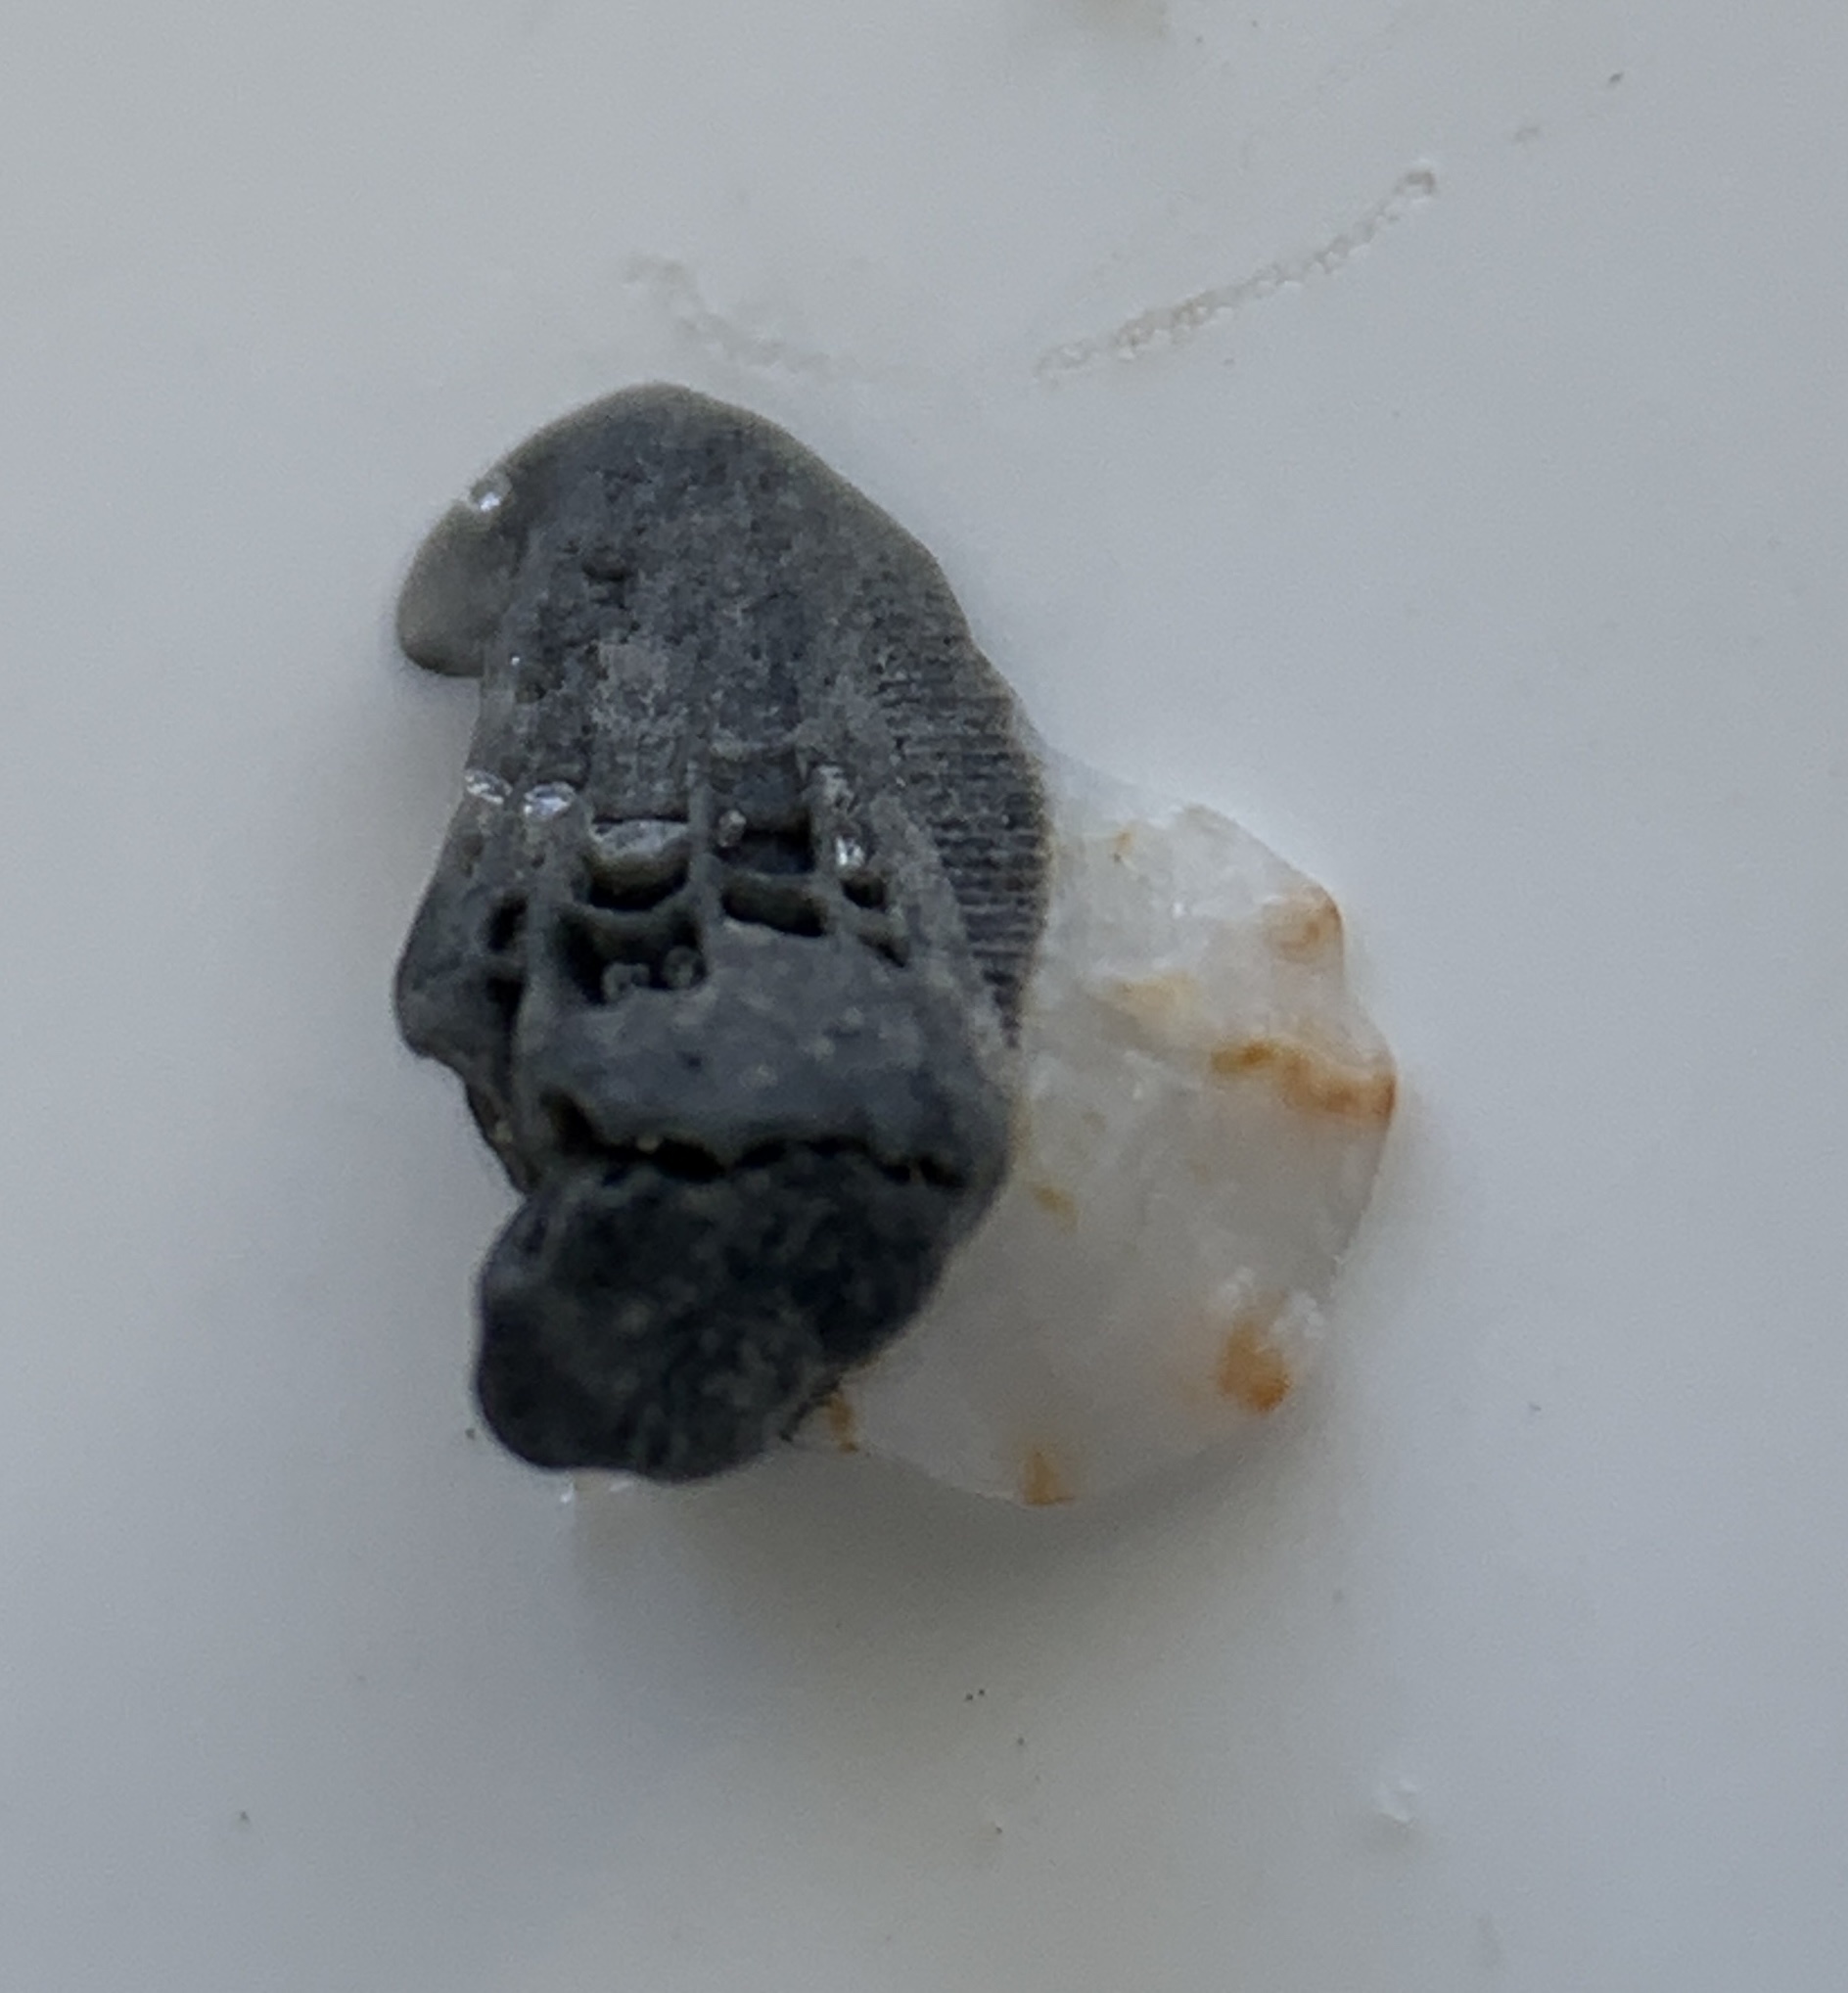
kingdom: Animalia
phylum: Mollusca
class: Bivalvia
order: Pectinida
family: Plicatulidae
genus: Plicatula
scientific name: Plicatula gibbosa
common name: Atlantic kitten's paw
